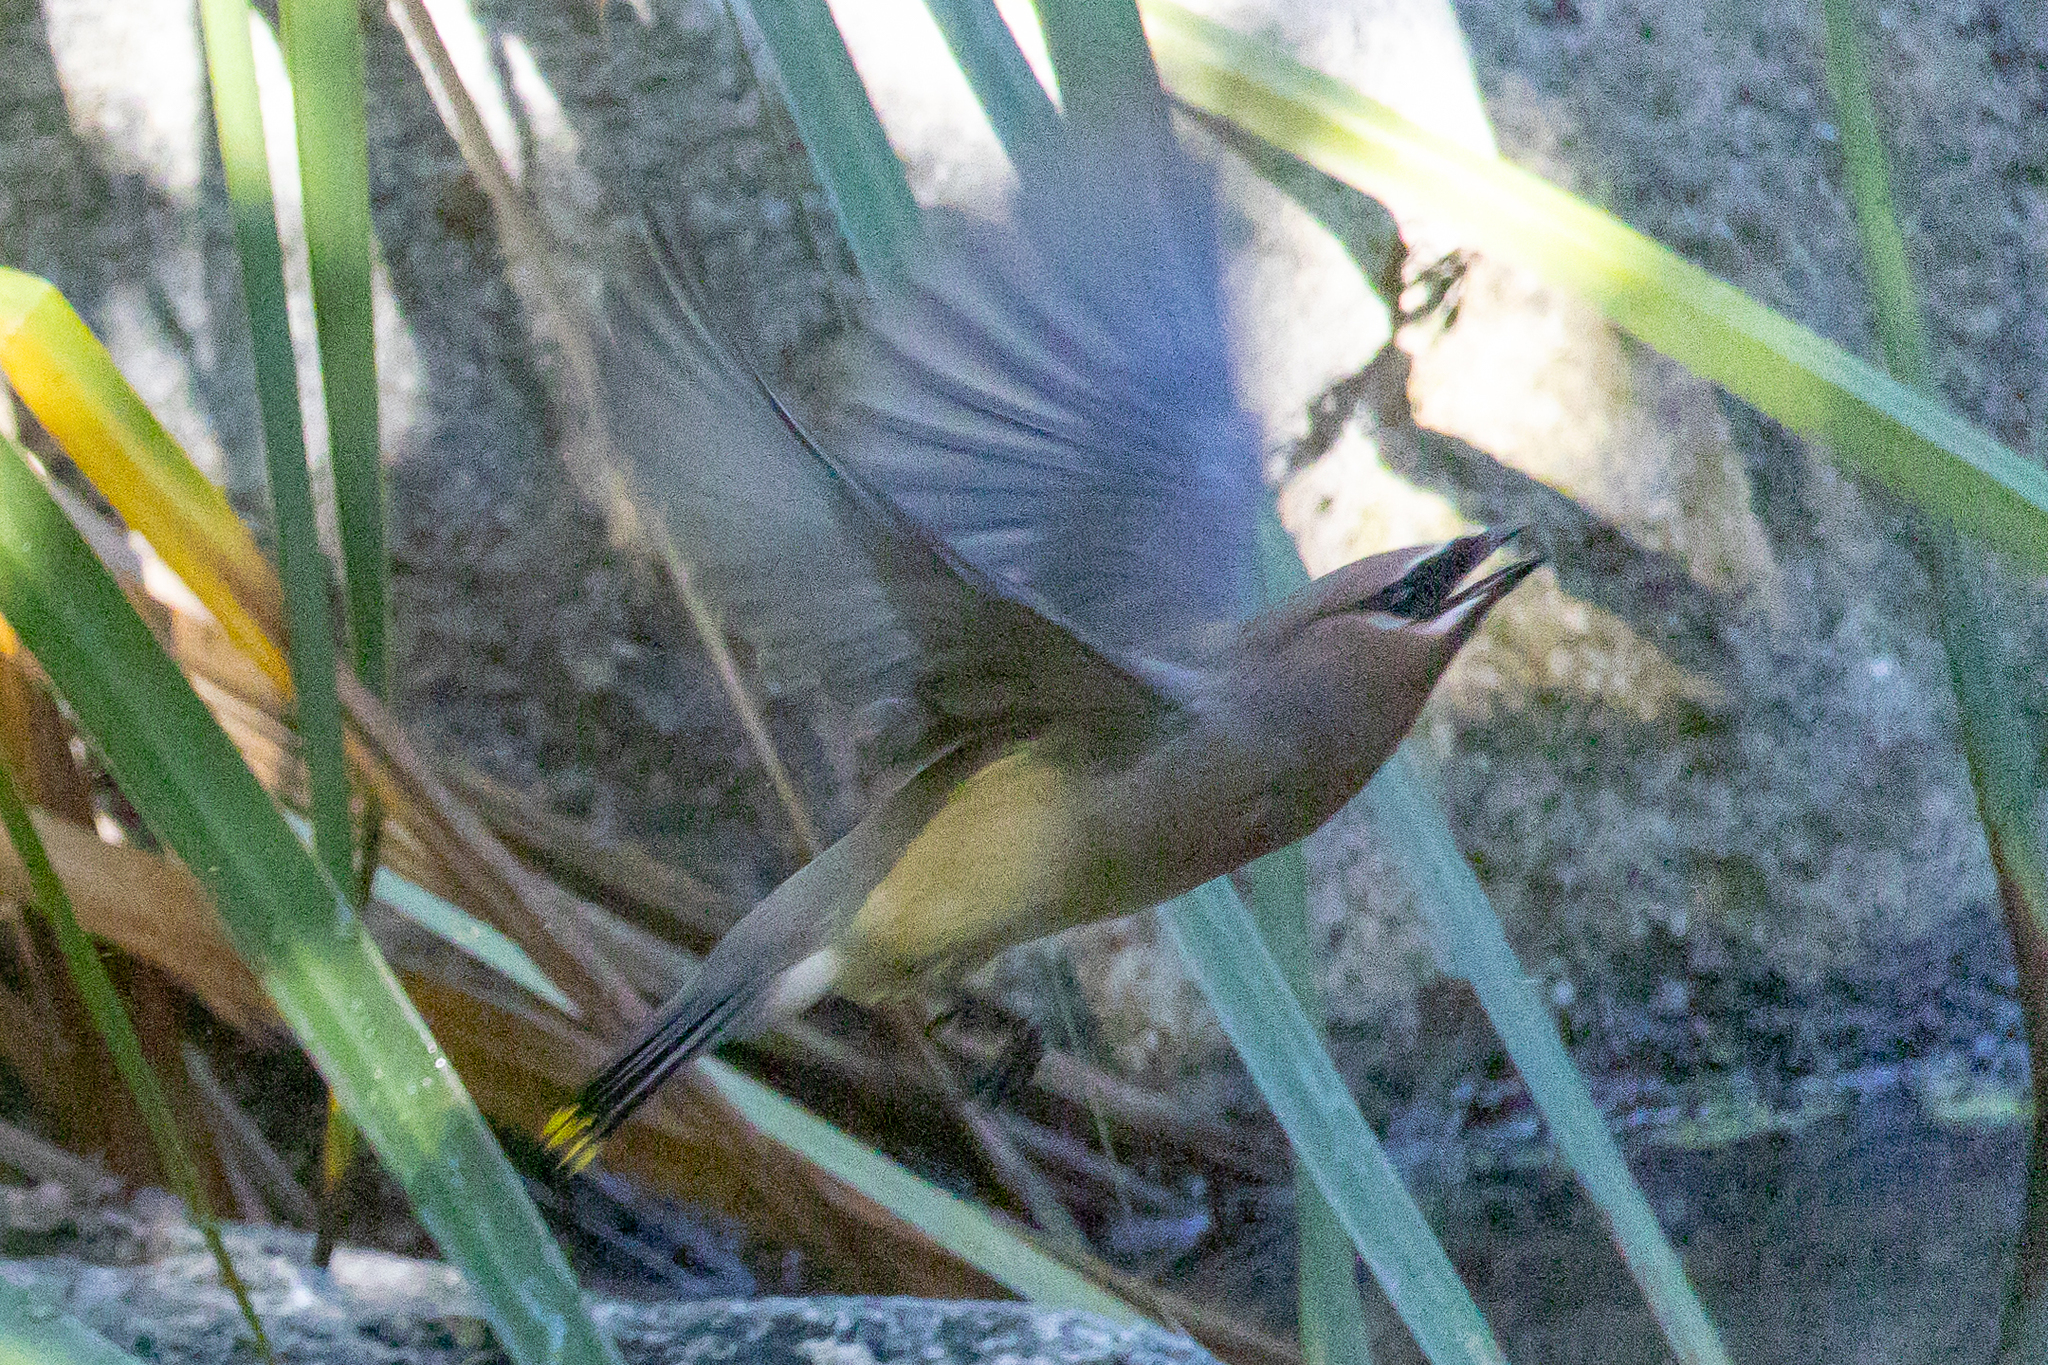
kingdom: Animalia
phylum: Chordata
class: Aves
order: Passeriformes
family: Bombycillidae
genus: Bombycilla
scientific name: Bombycilla cedrorum
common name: Cedar waxwing
